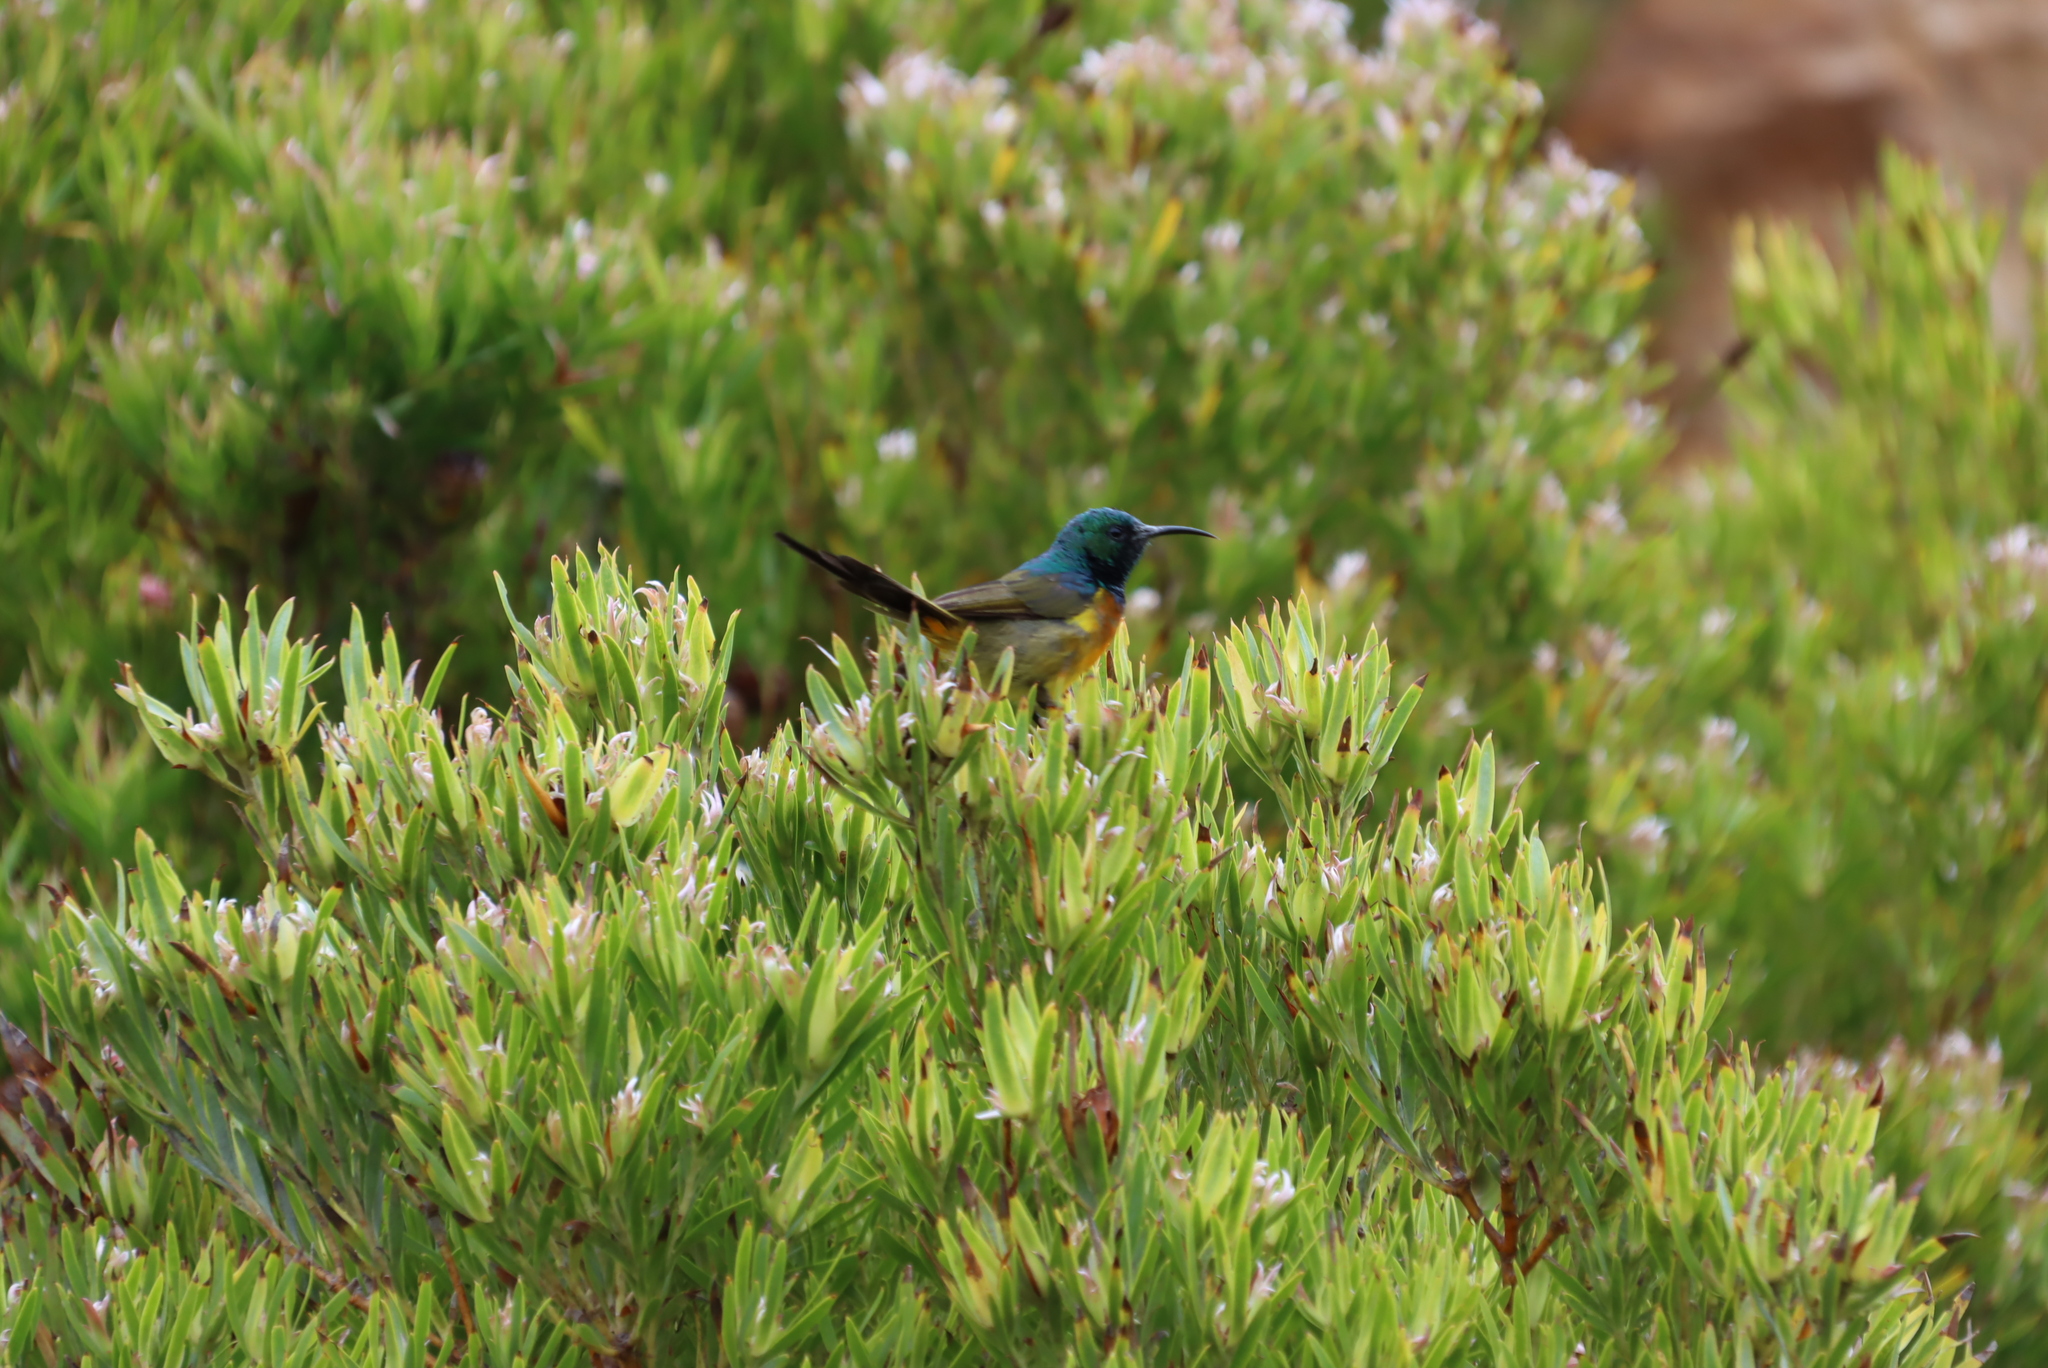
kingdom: Plantae
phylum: Tracheophyta
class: Magnoliopsida
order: Proteales
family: Proteaceae
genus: Leucadendron
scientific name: Leucadendron xanthoconus
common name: Sickle-leaf conebush
